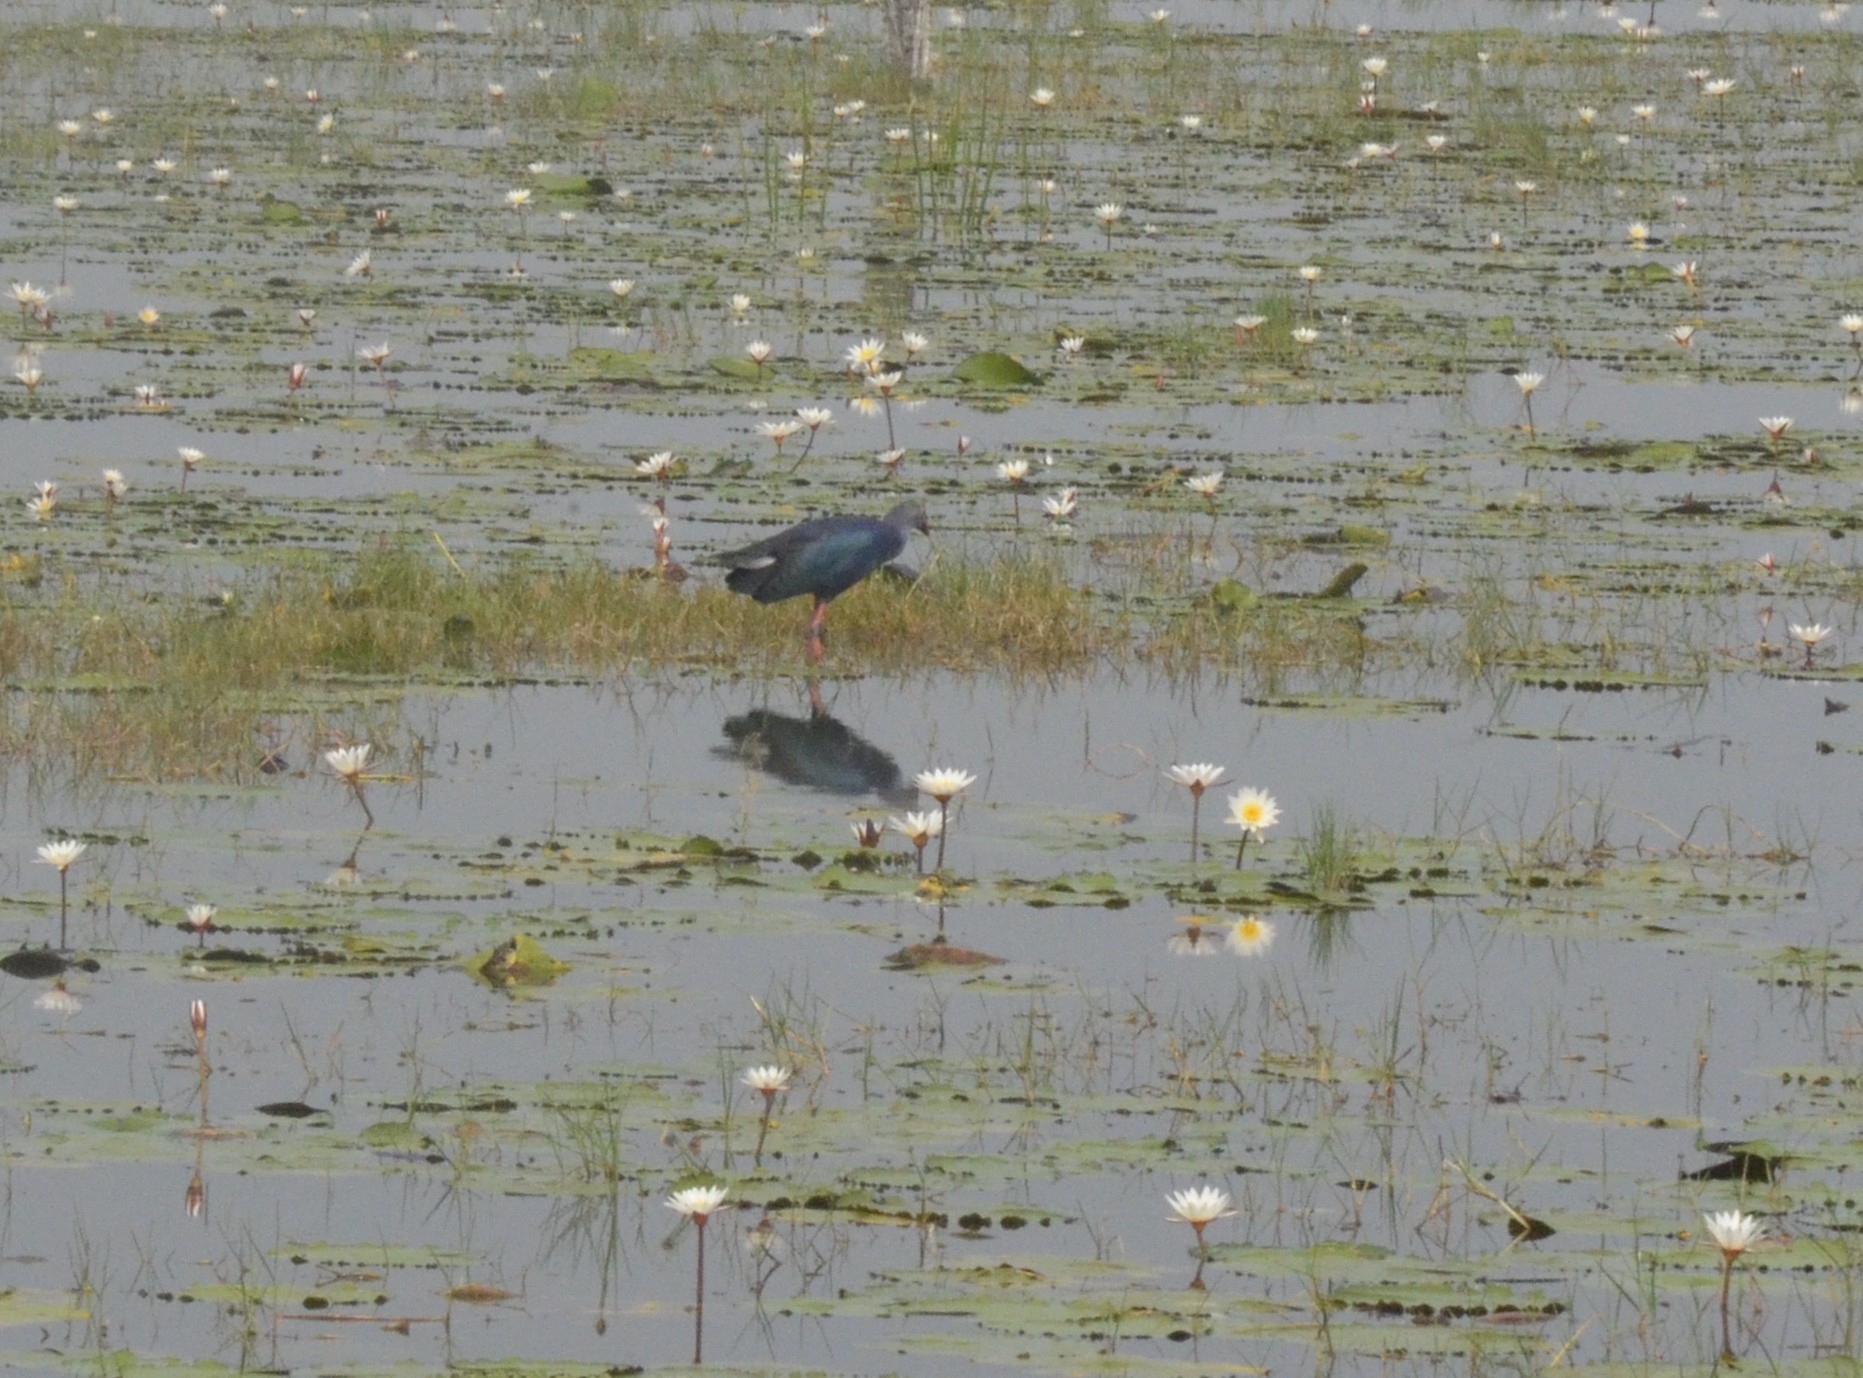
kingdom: Animalia
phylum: Chordata
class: Aves
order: Gruiformes
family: Rallidae
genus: Porphyrio
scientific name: Porphyrio porphyrio
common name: Purple swamphen
